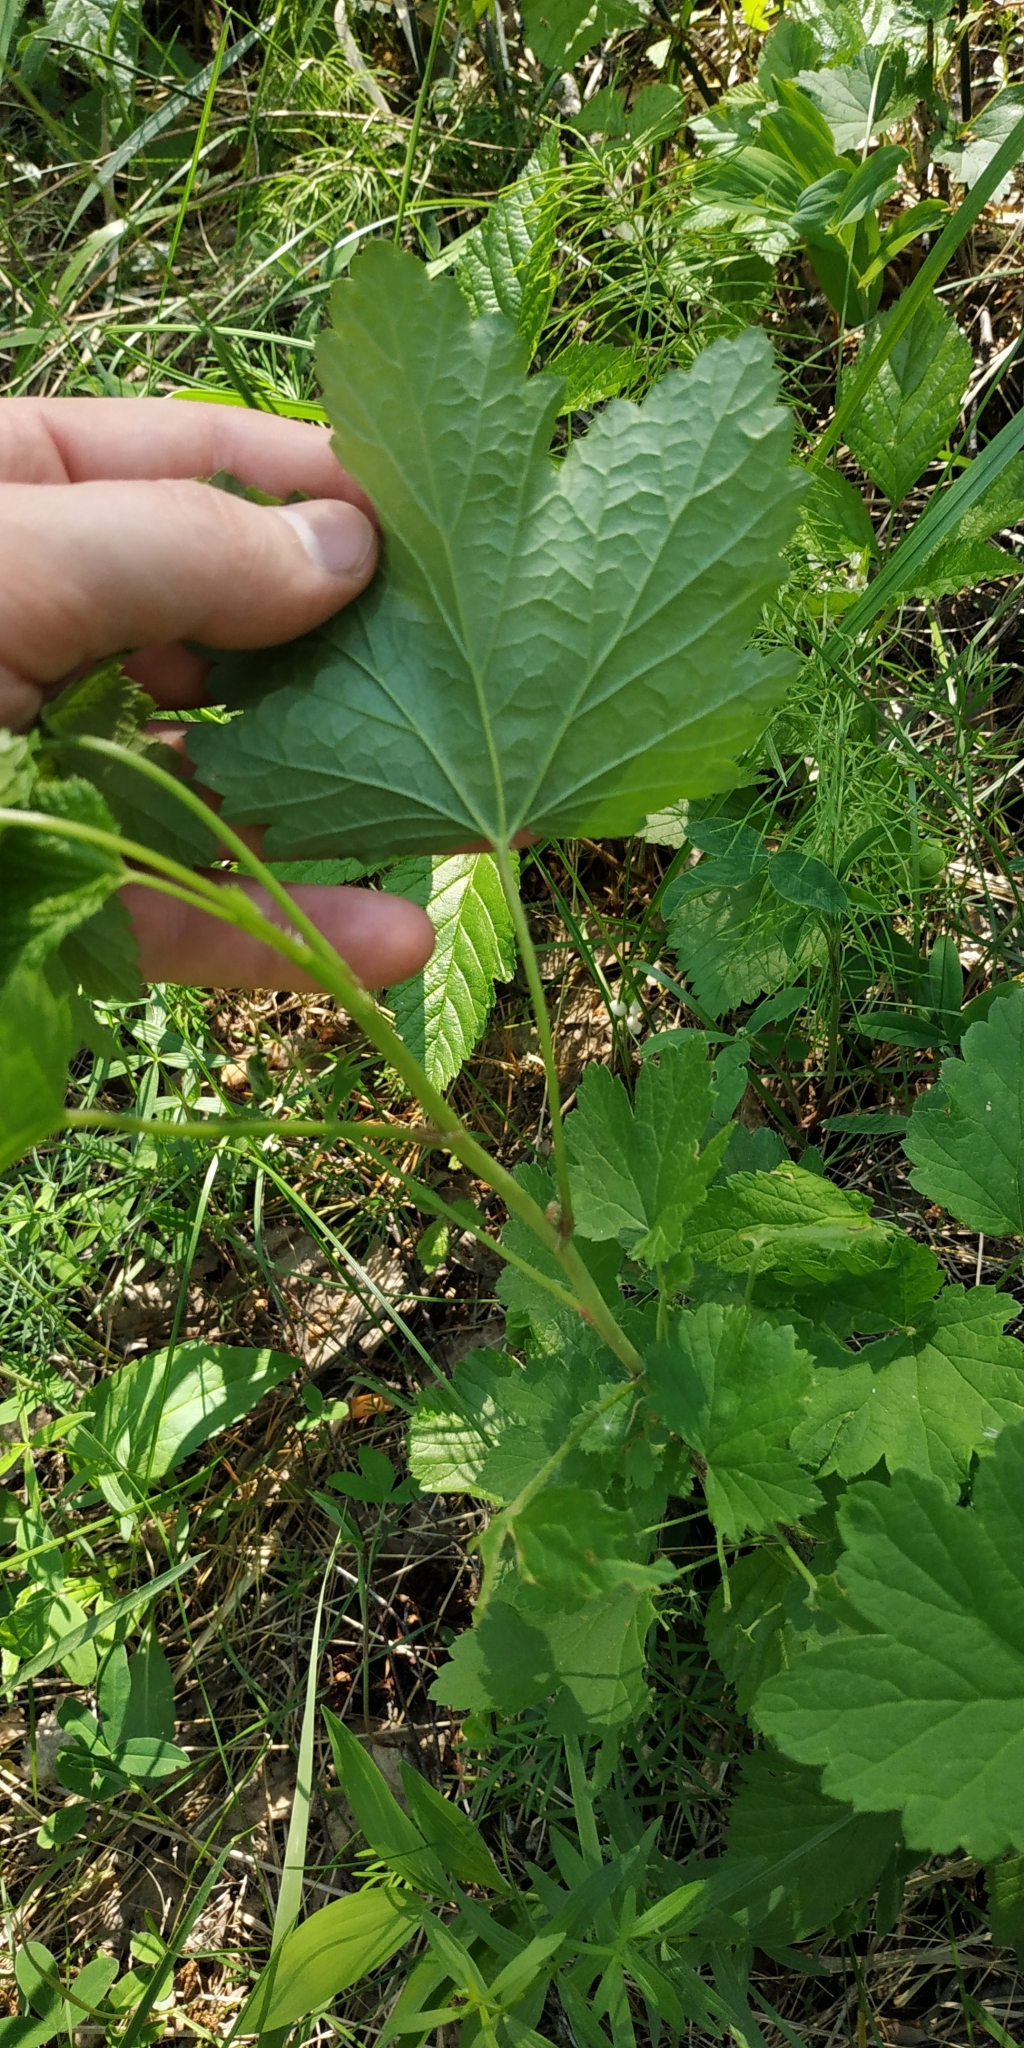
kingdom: Plantae
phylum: Tracheophyta
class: Magnoliopsida
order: Saxifragales
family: Grossulariaceae
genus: Ribes
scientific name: Ribes rubrum
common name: Red currant
